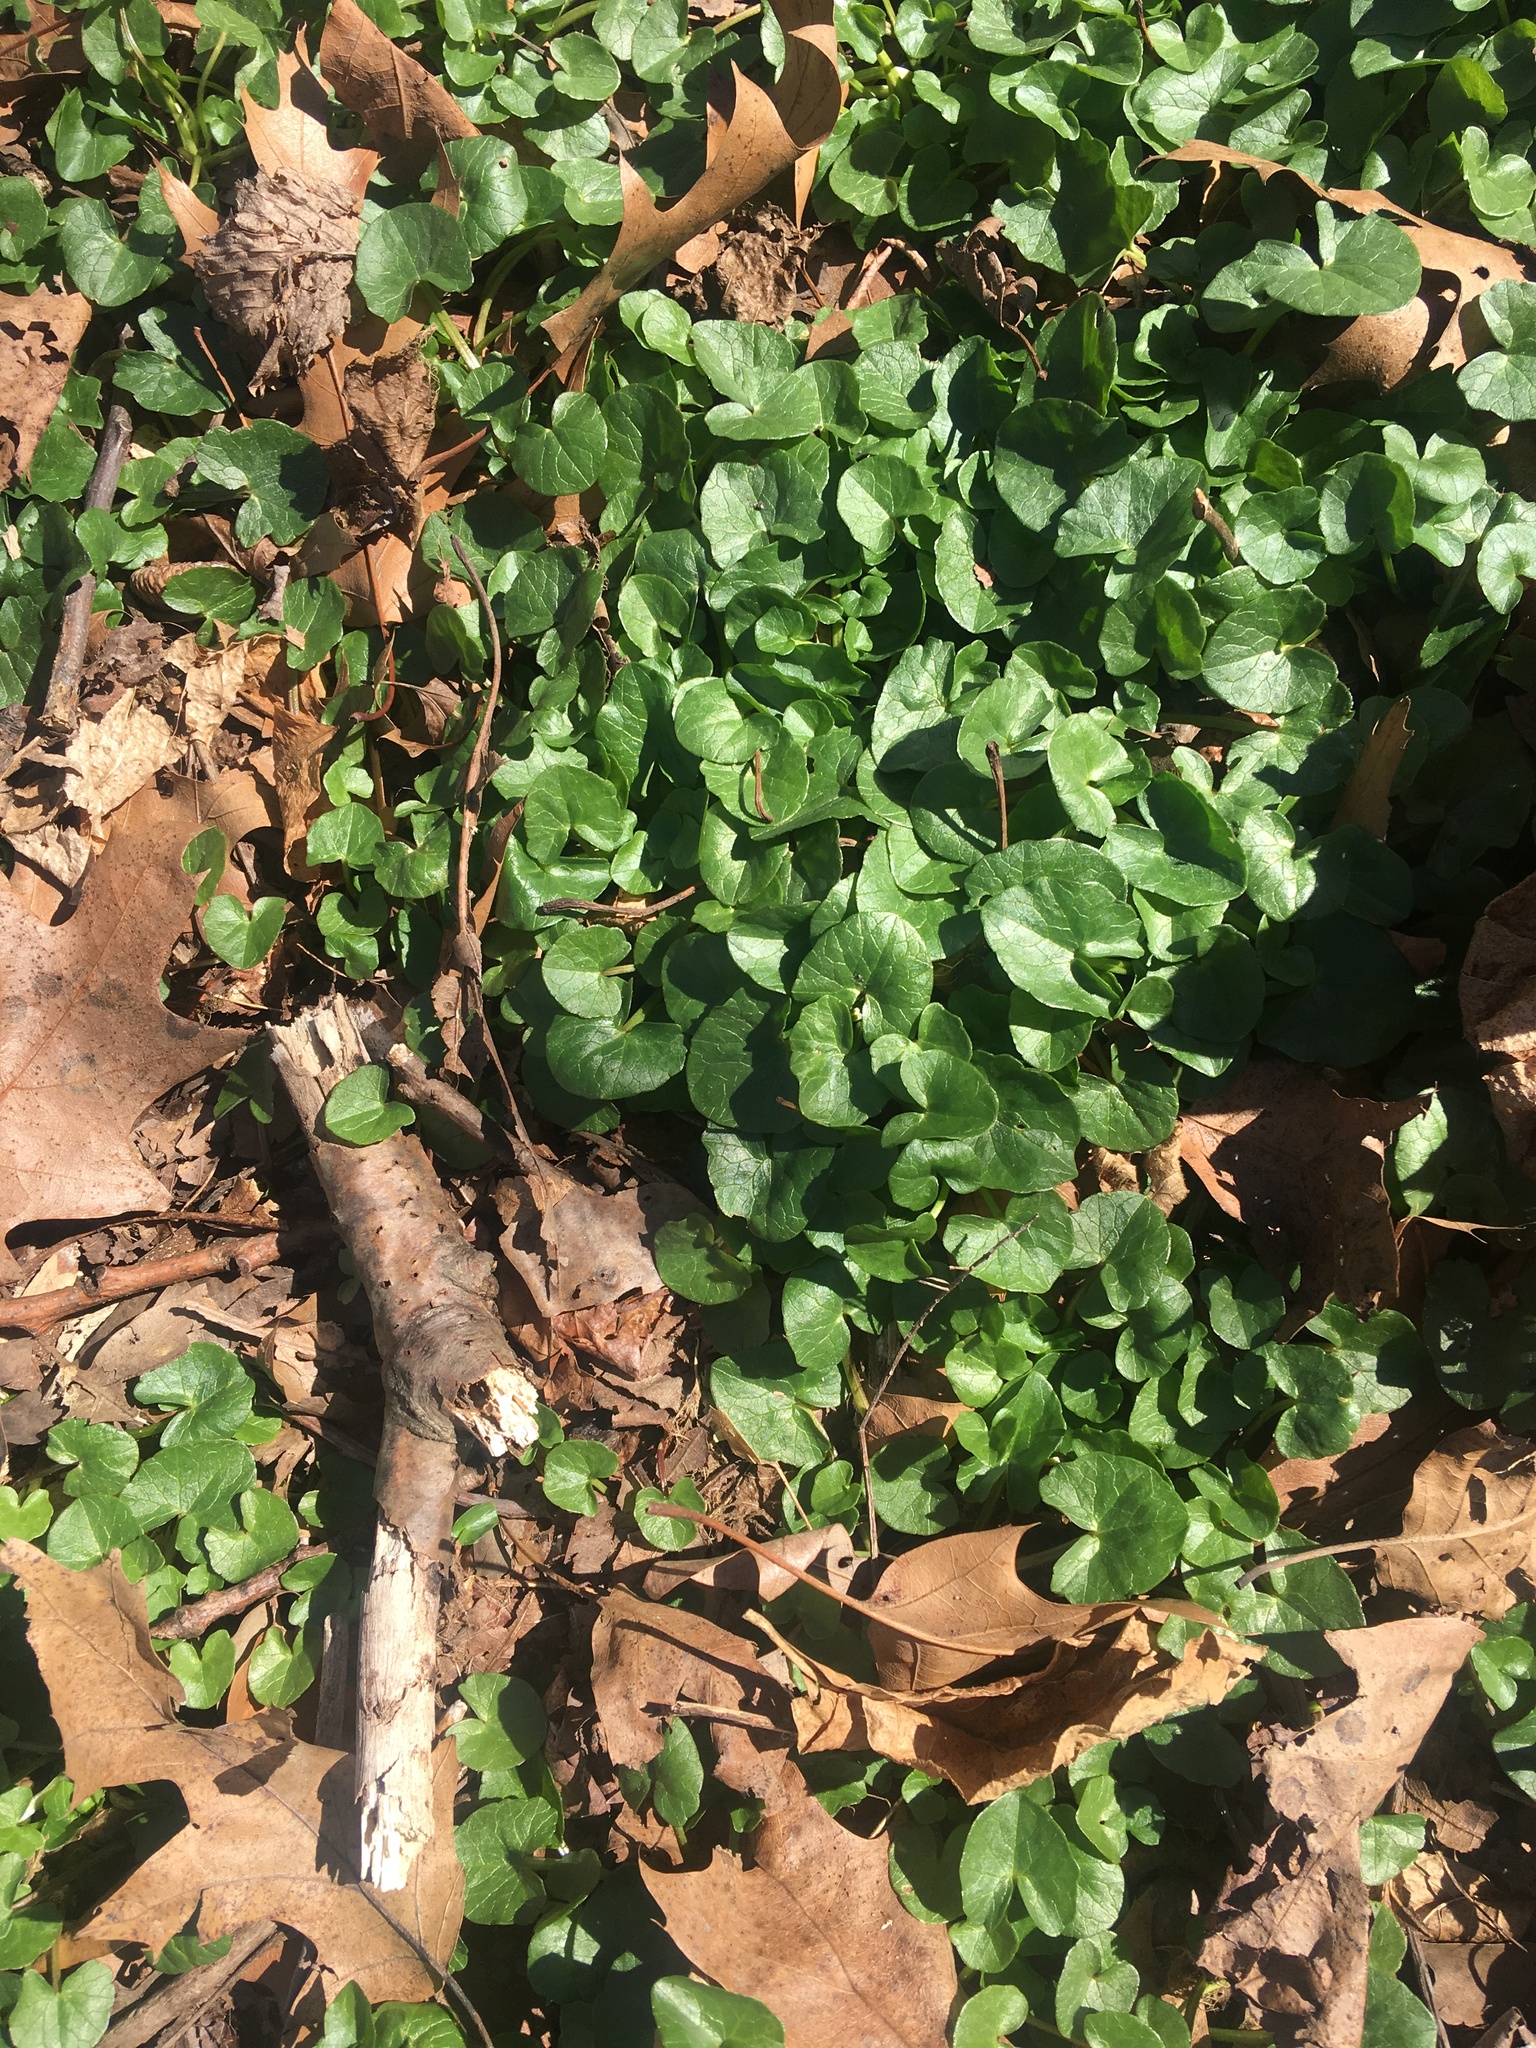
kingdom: Plantae
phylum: Tracheophyta
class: Magnoliopsida
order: Ranunculales
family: Ranunculaceae
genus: Ficaria
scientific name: Ficaria verna
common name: Lesser celandine
